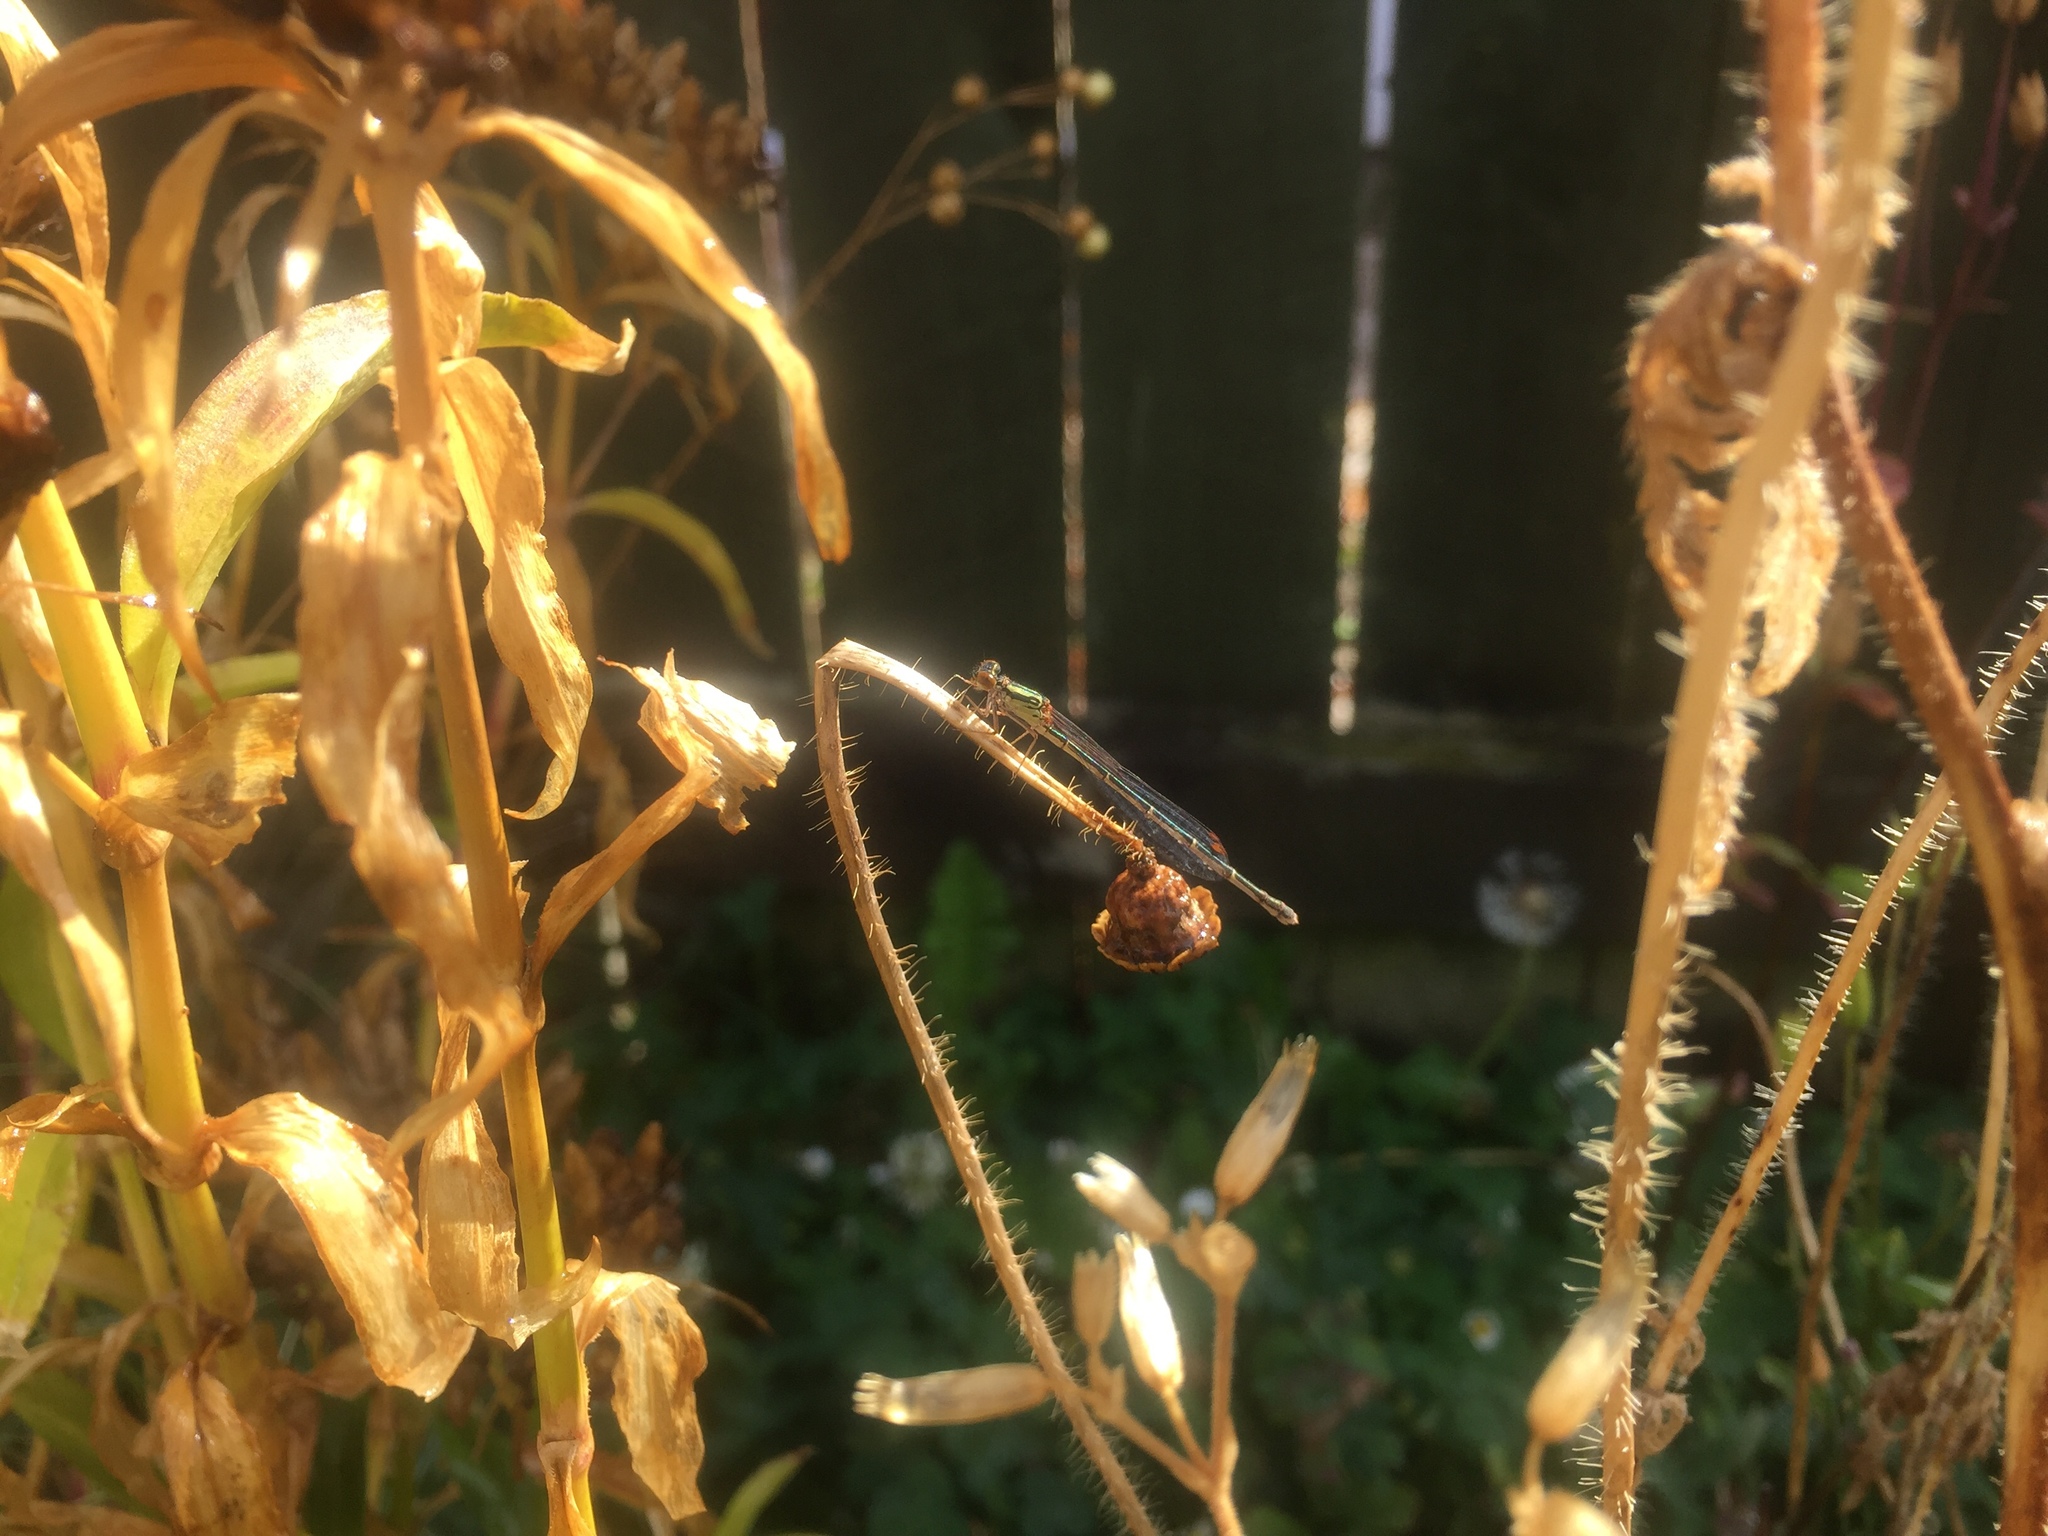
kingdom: Animalia
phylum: Arthropoda
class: Insecta
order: Odonata
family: Coenagrionidae
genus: Xanthocnemis
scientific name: Xanthocnemis zealandica
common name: Common redcoat damselfly
